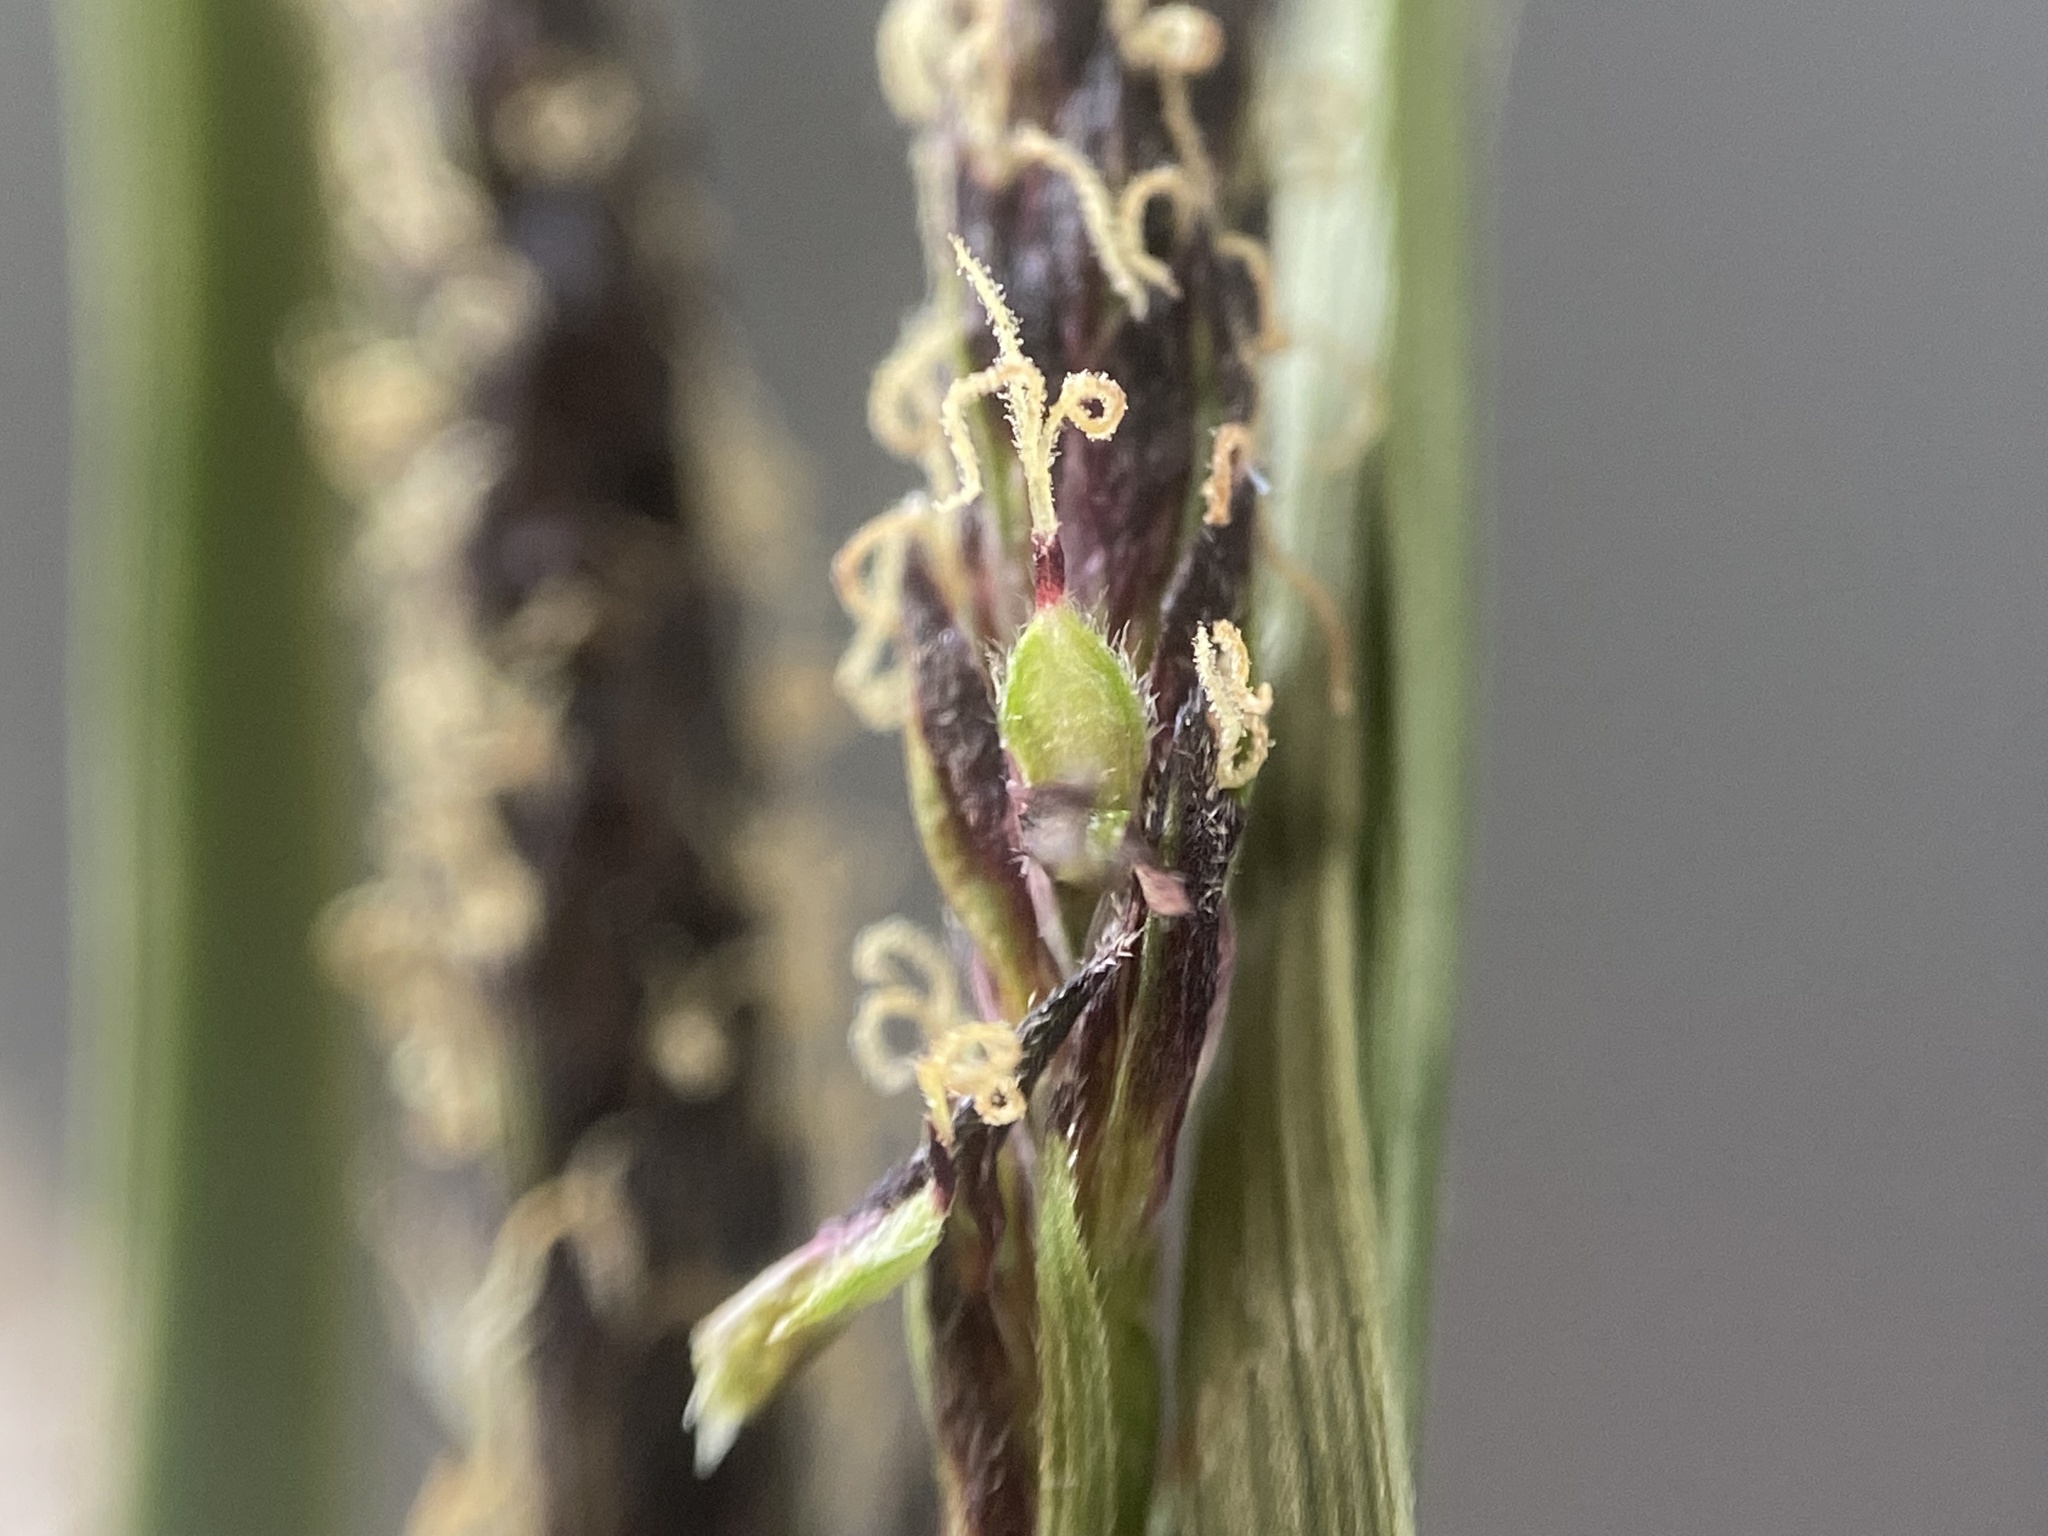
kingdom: Plantae
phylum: Tracheophyta
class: Liliopsida
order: Poales
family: Cyperaceae
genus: Carex
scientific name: Carex scirpoidea
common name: Canada single-spike sedge
